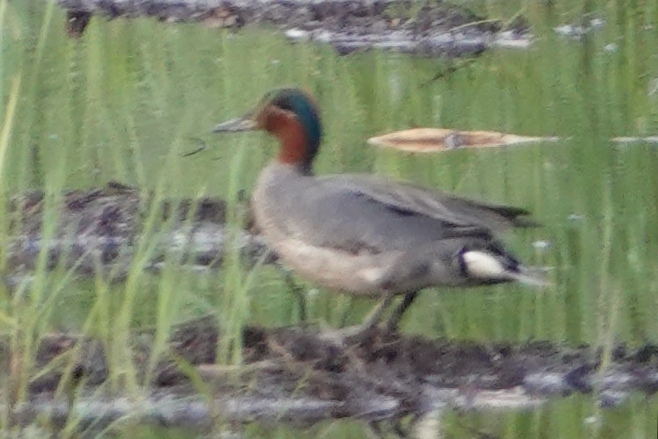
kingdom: Animalia
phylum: Chordata
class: Aves
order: Anseriformes
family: Anatidae
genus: Anas
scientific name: Anas crecca
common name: Eurasian teal
